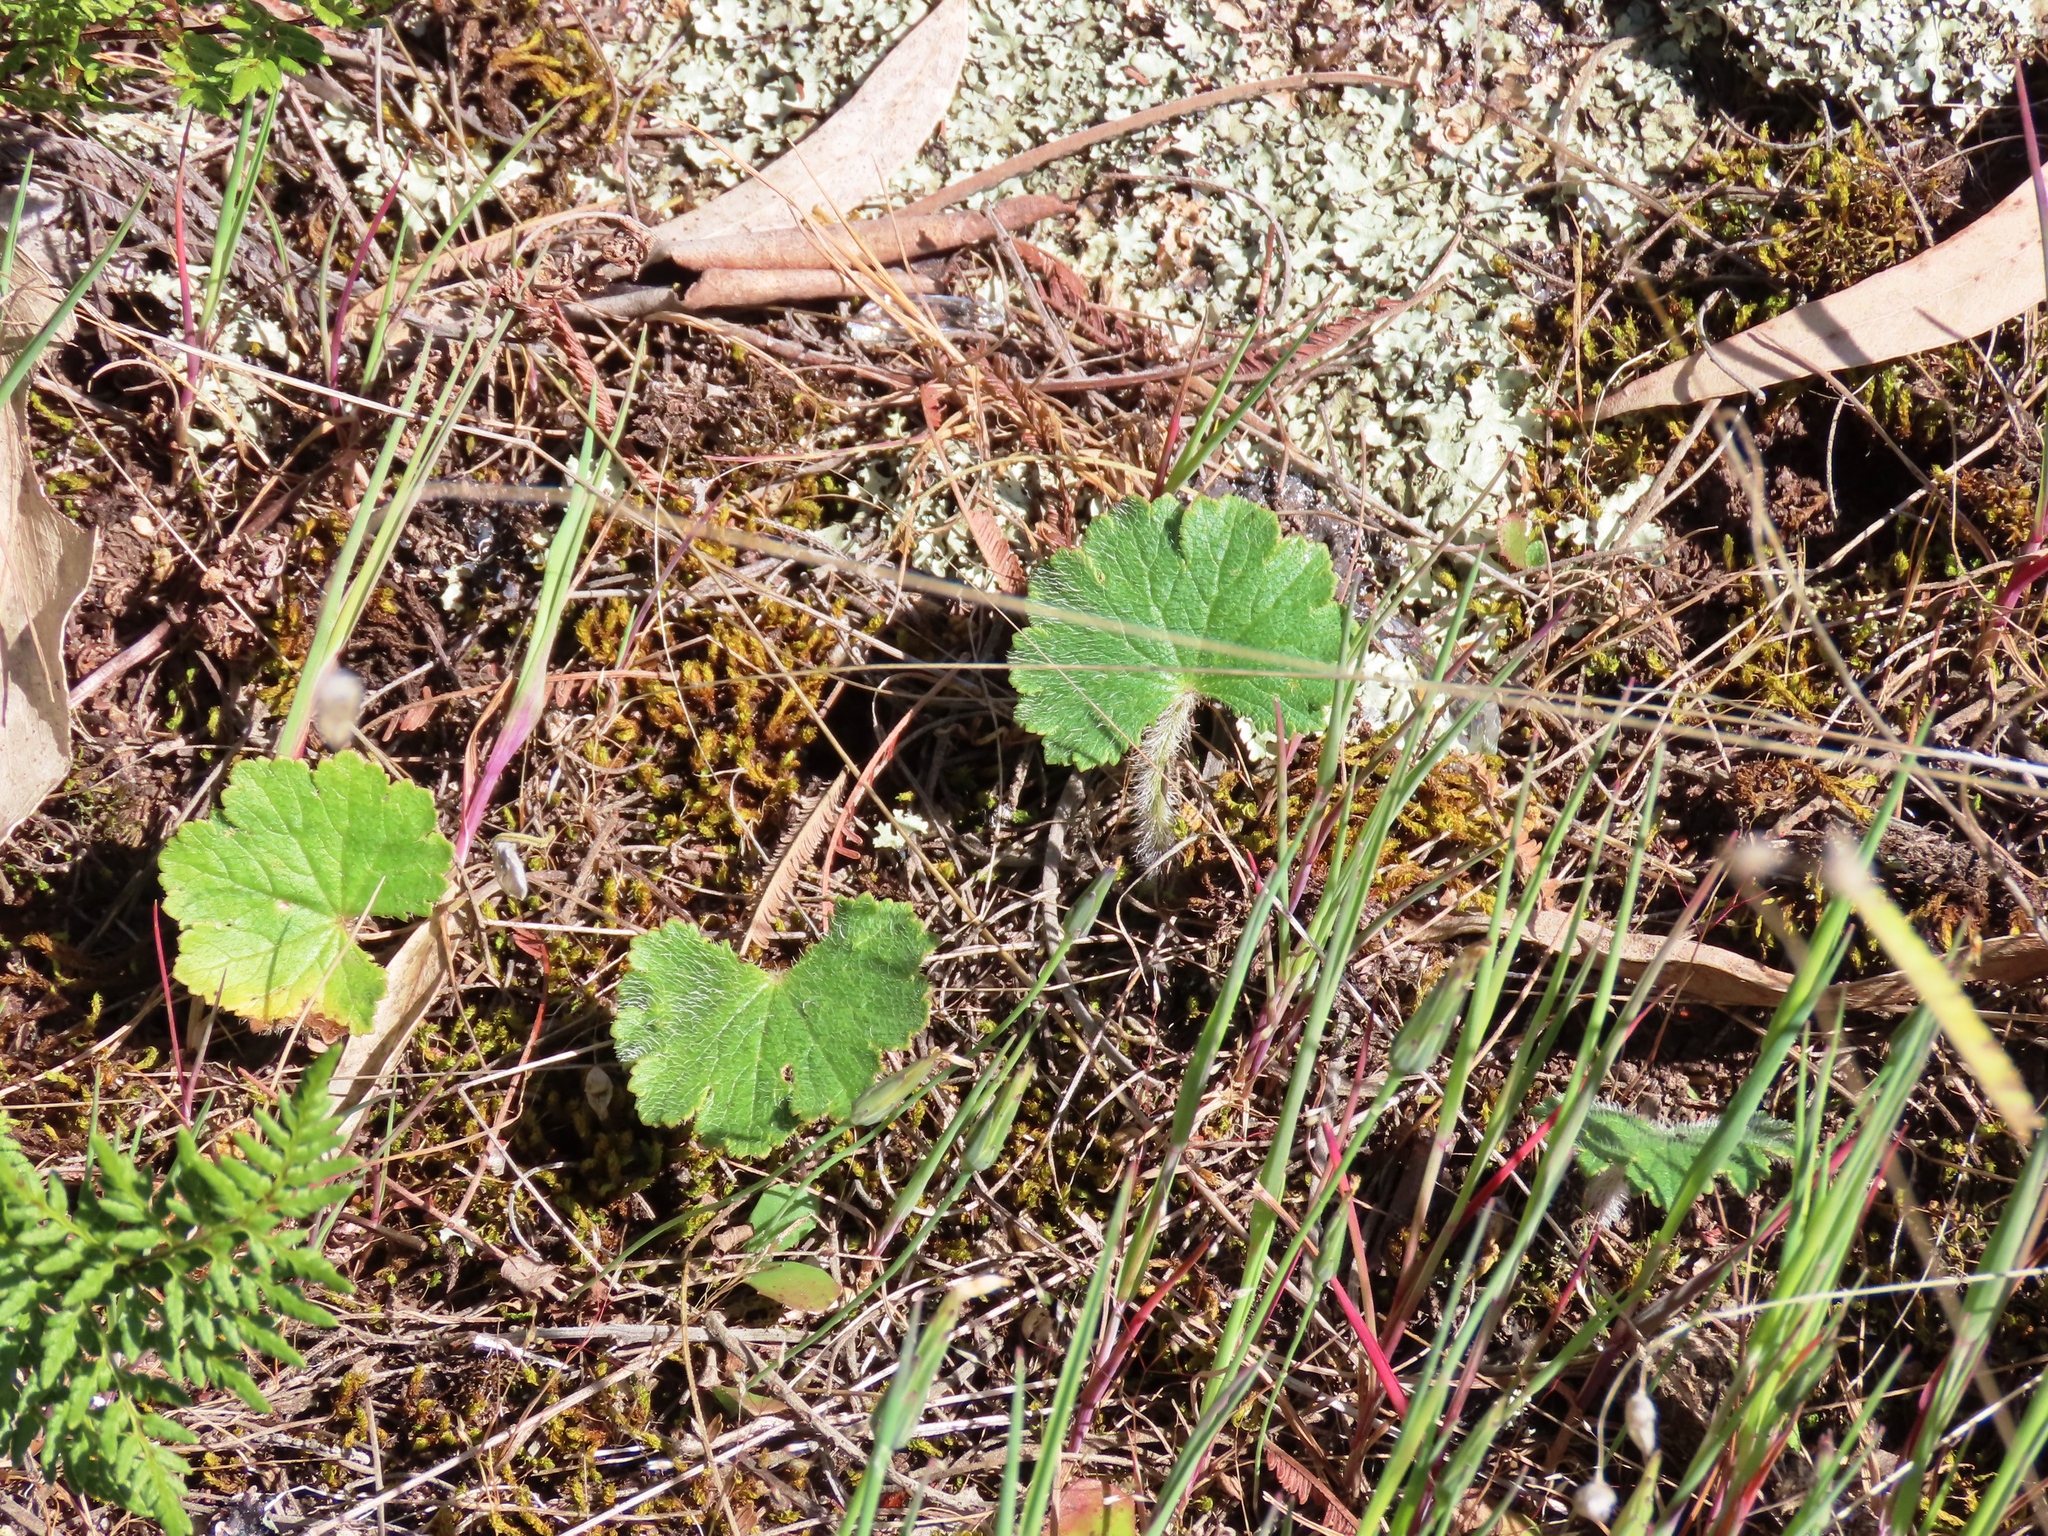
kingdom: Plantae
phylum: Tracheophyta
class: Magnoliopsida
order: Apiales
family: Araliaceae
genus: Hydrocotyle
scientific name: Hydrocotyle laxiflora
